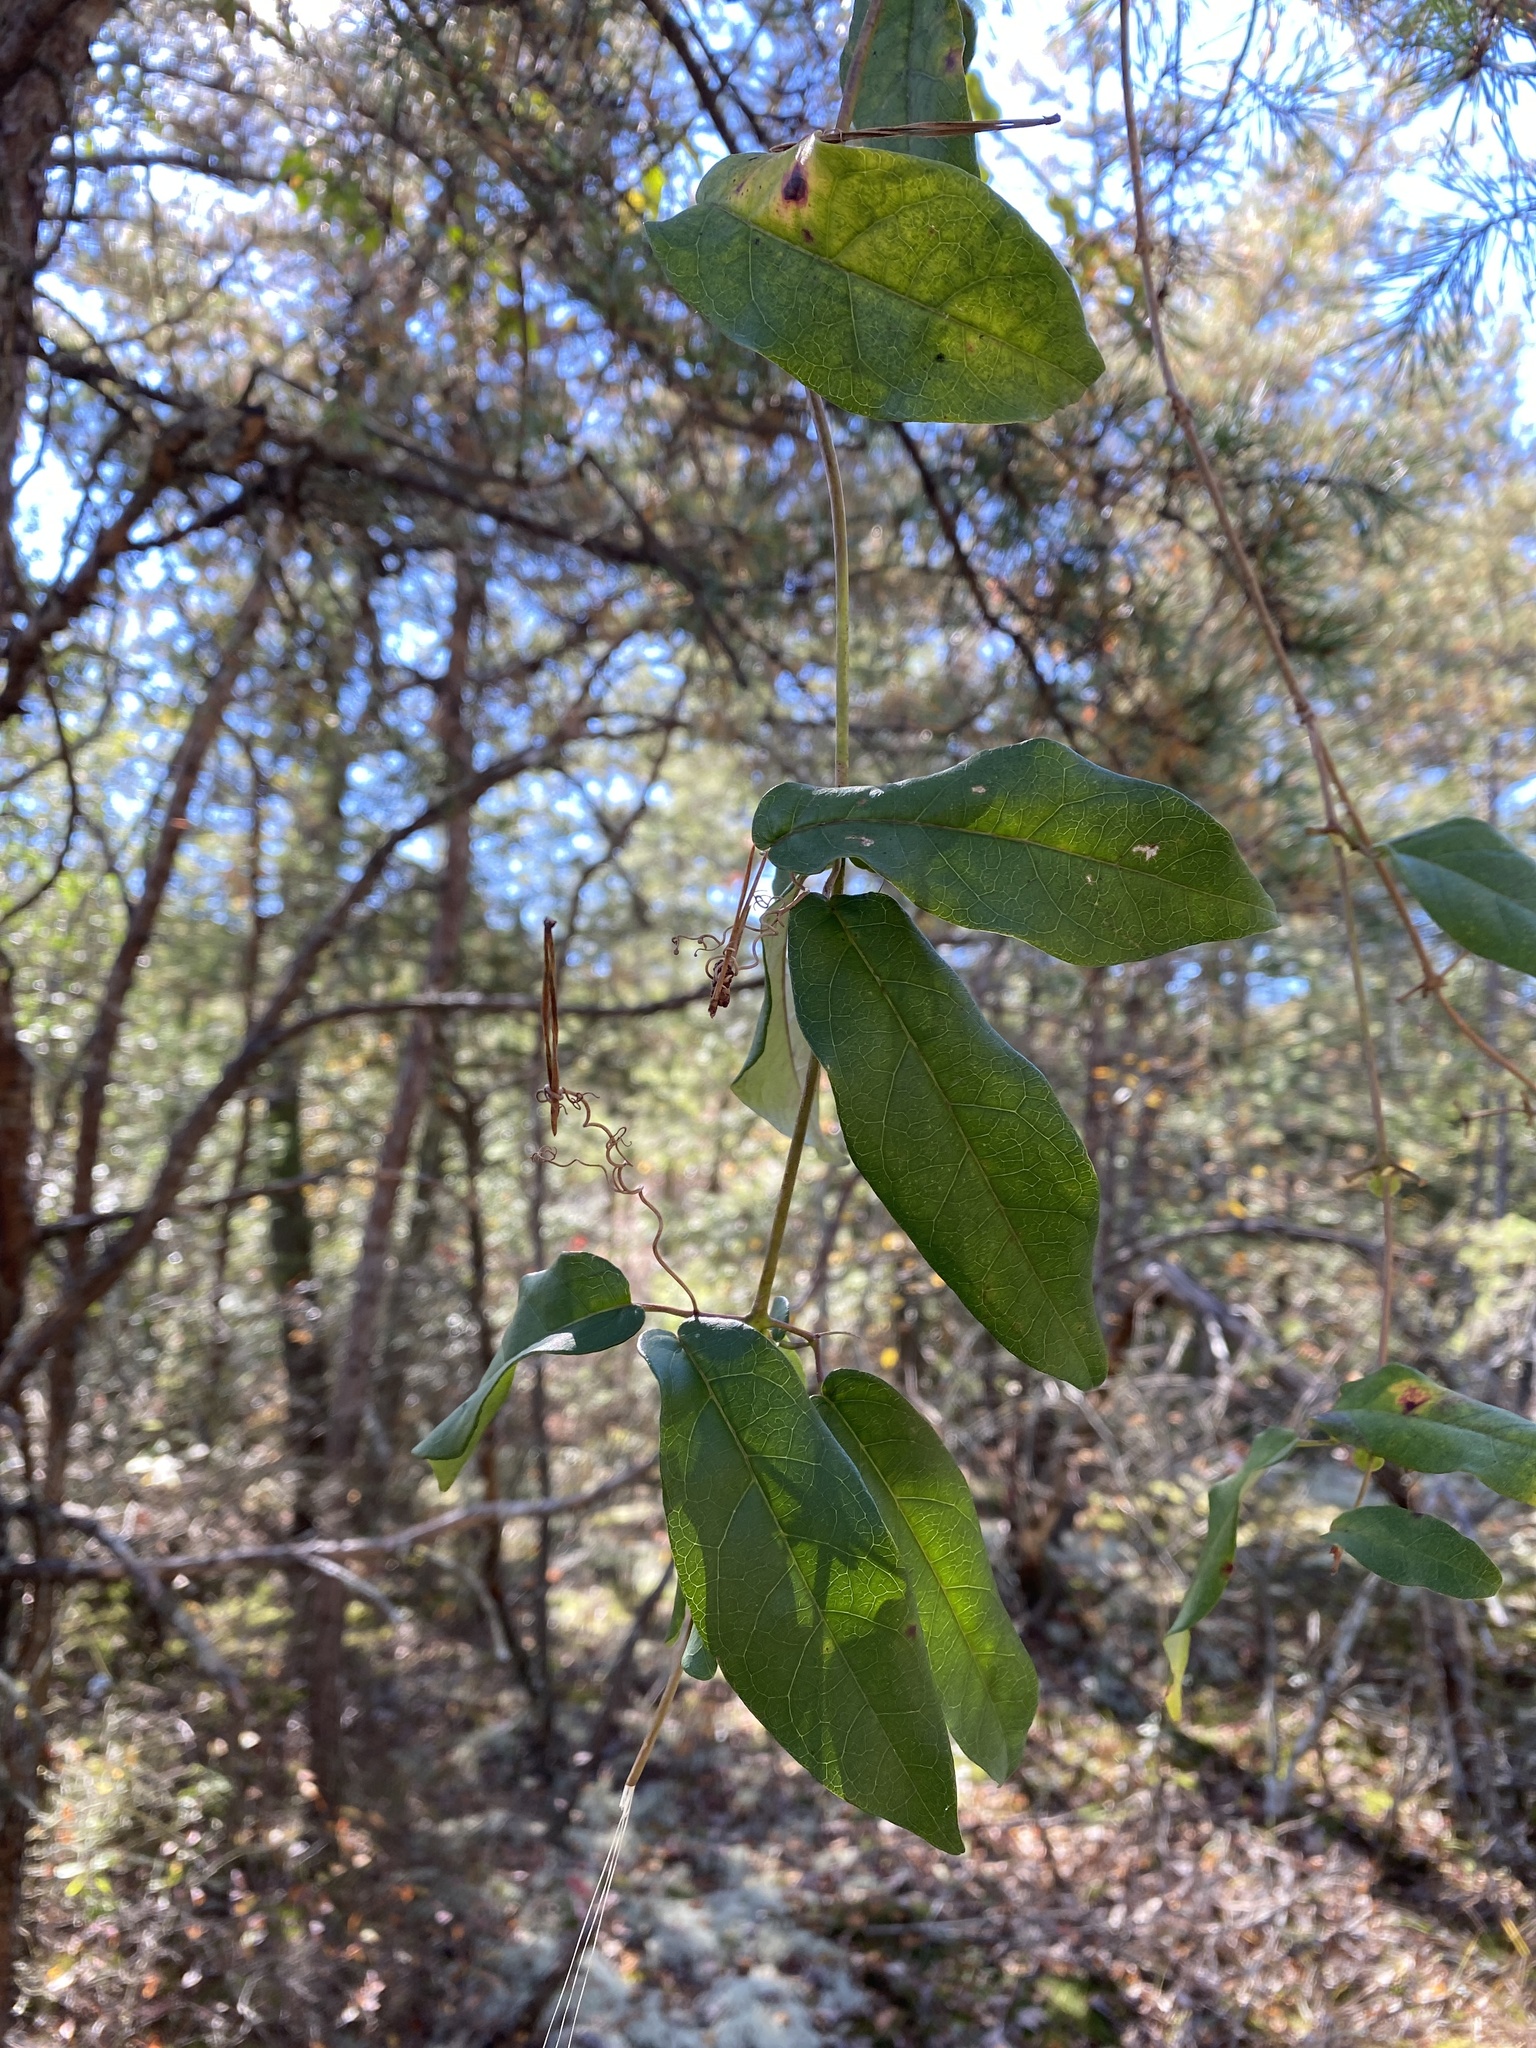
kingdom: Plantae
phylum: Tracheophyta
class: Magnoliopsida
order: Lamiales
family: Bignoniaceae
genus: Bignonia
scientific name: Bignonia capreolata
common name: Crossvine
